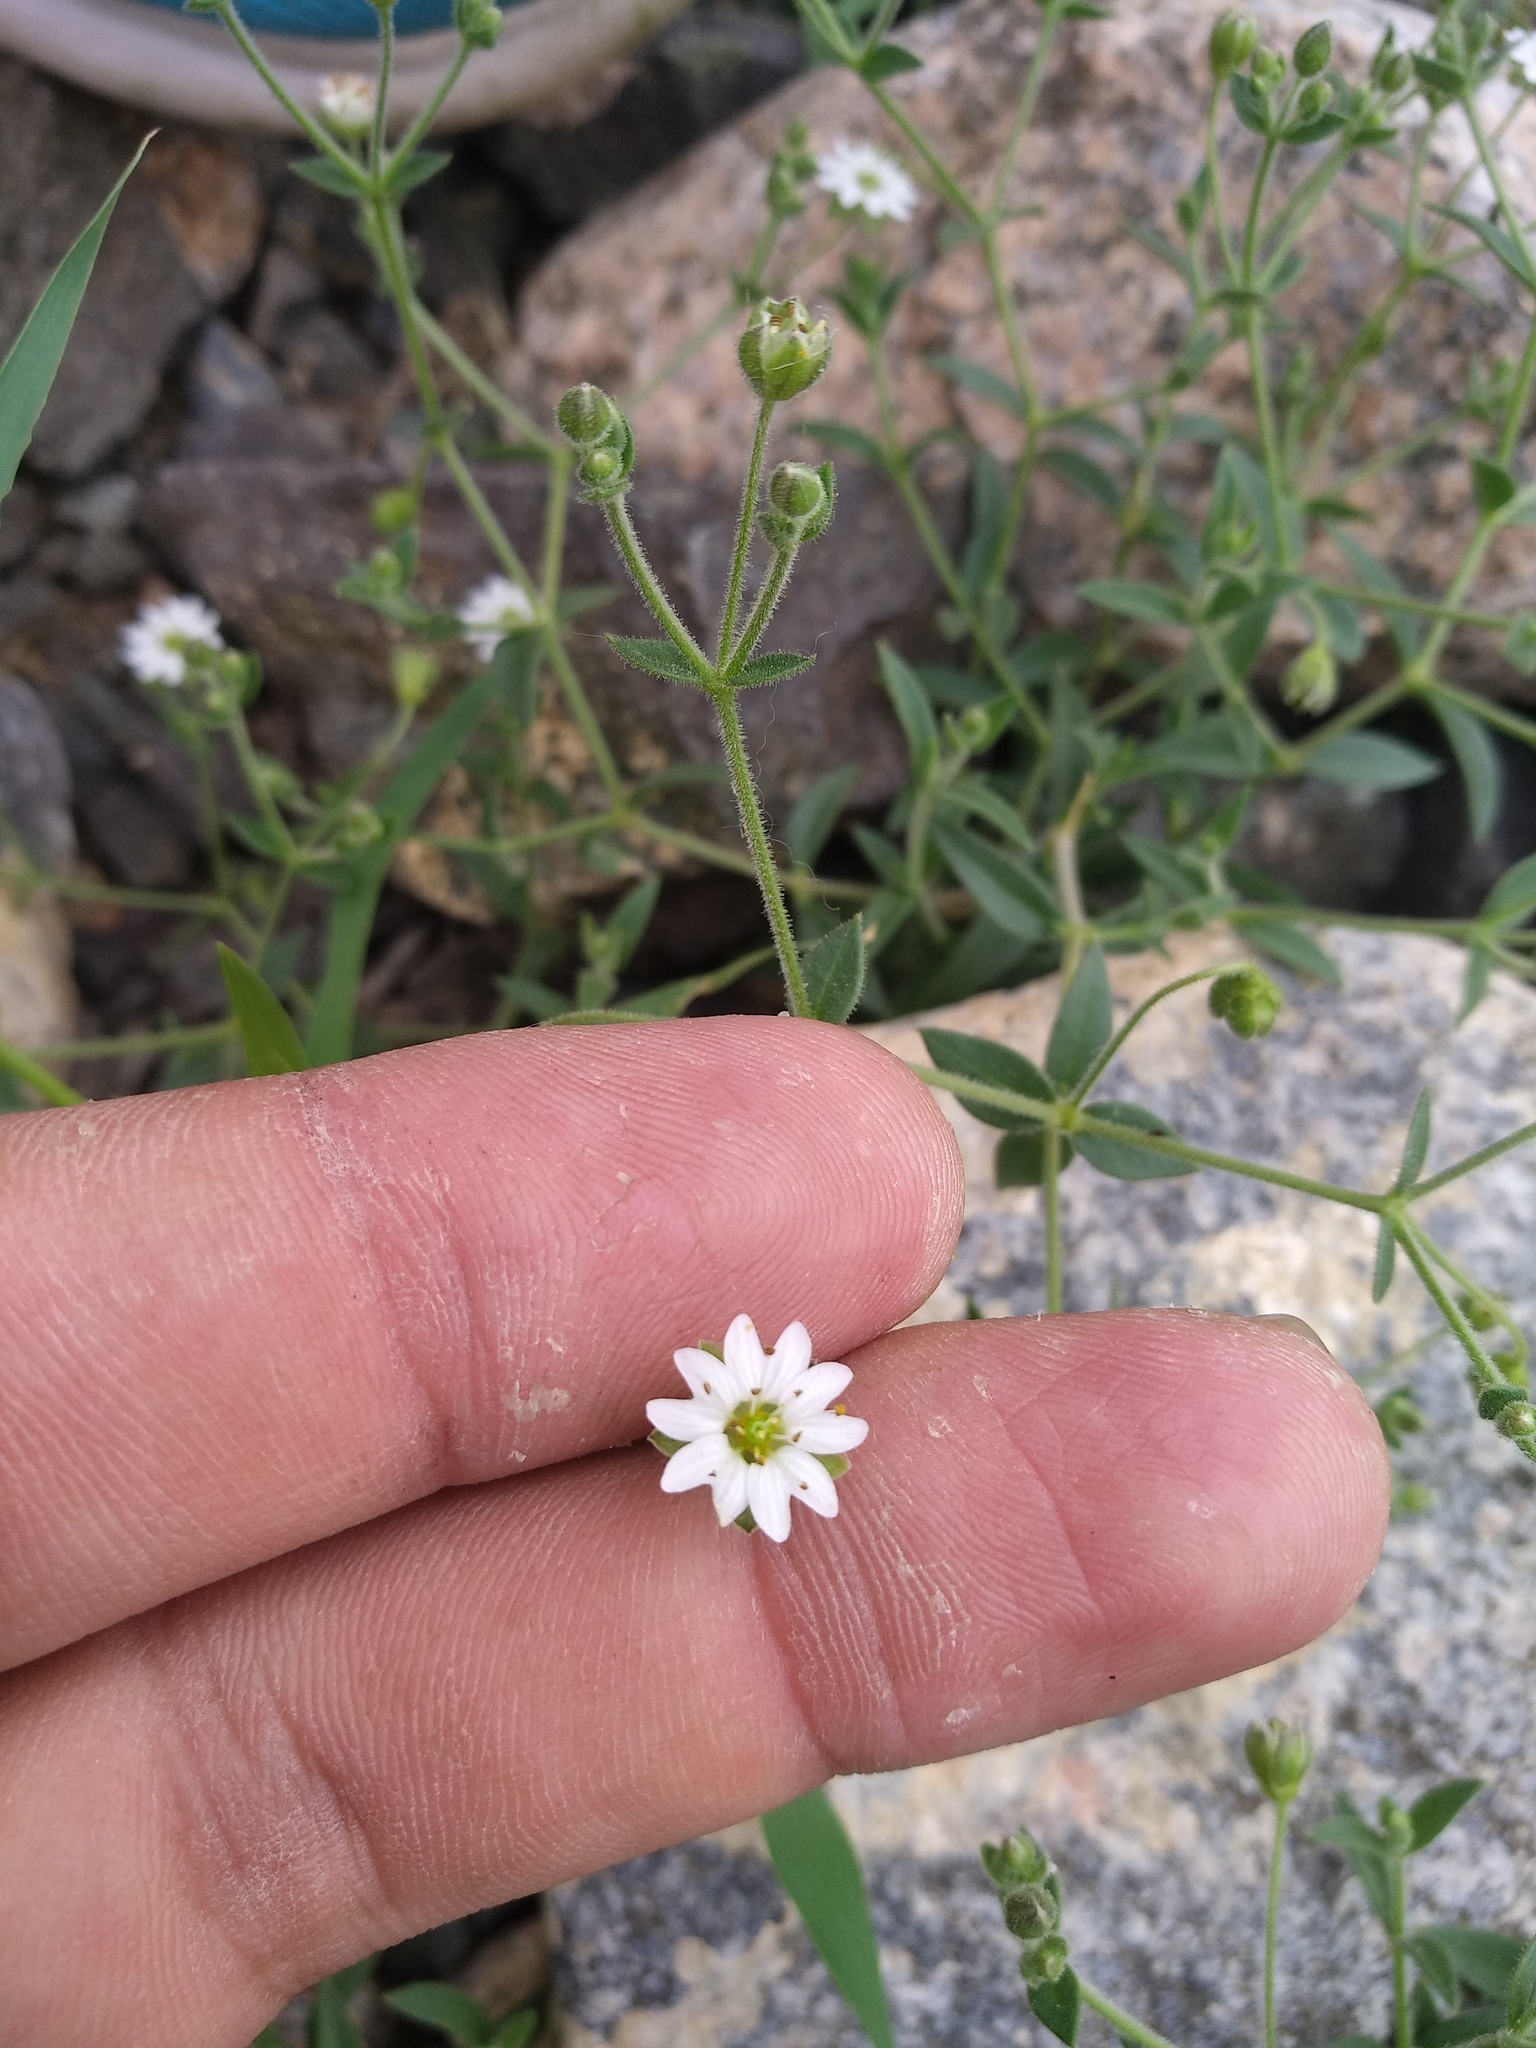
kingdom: Plantae
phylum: Tracheophyta
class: Magnoliopsida
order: Caryophyllales
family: Caryophyllaceae
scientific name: Caryophyllaceae
